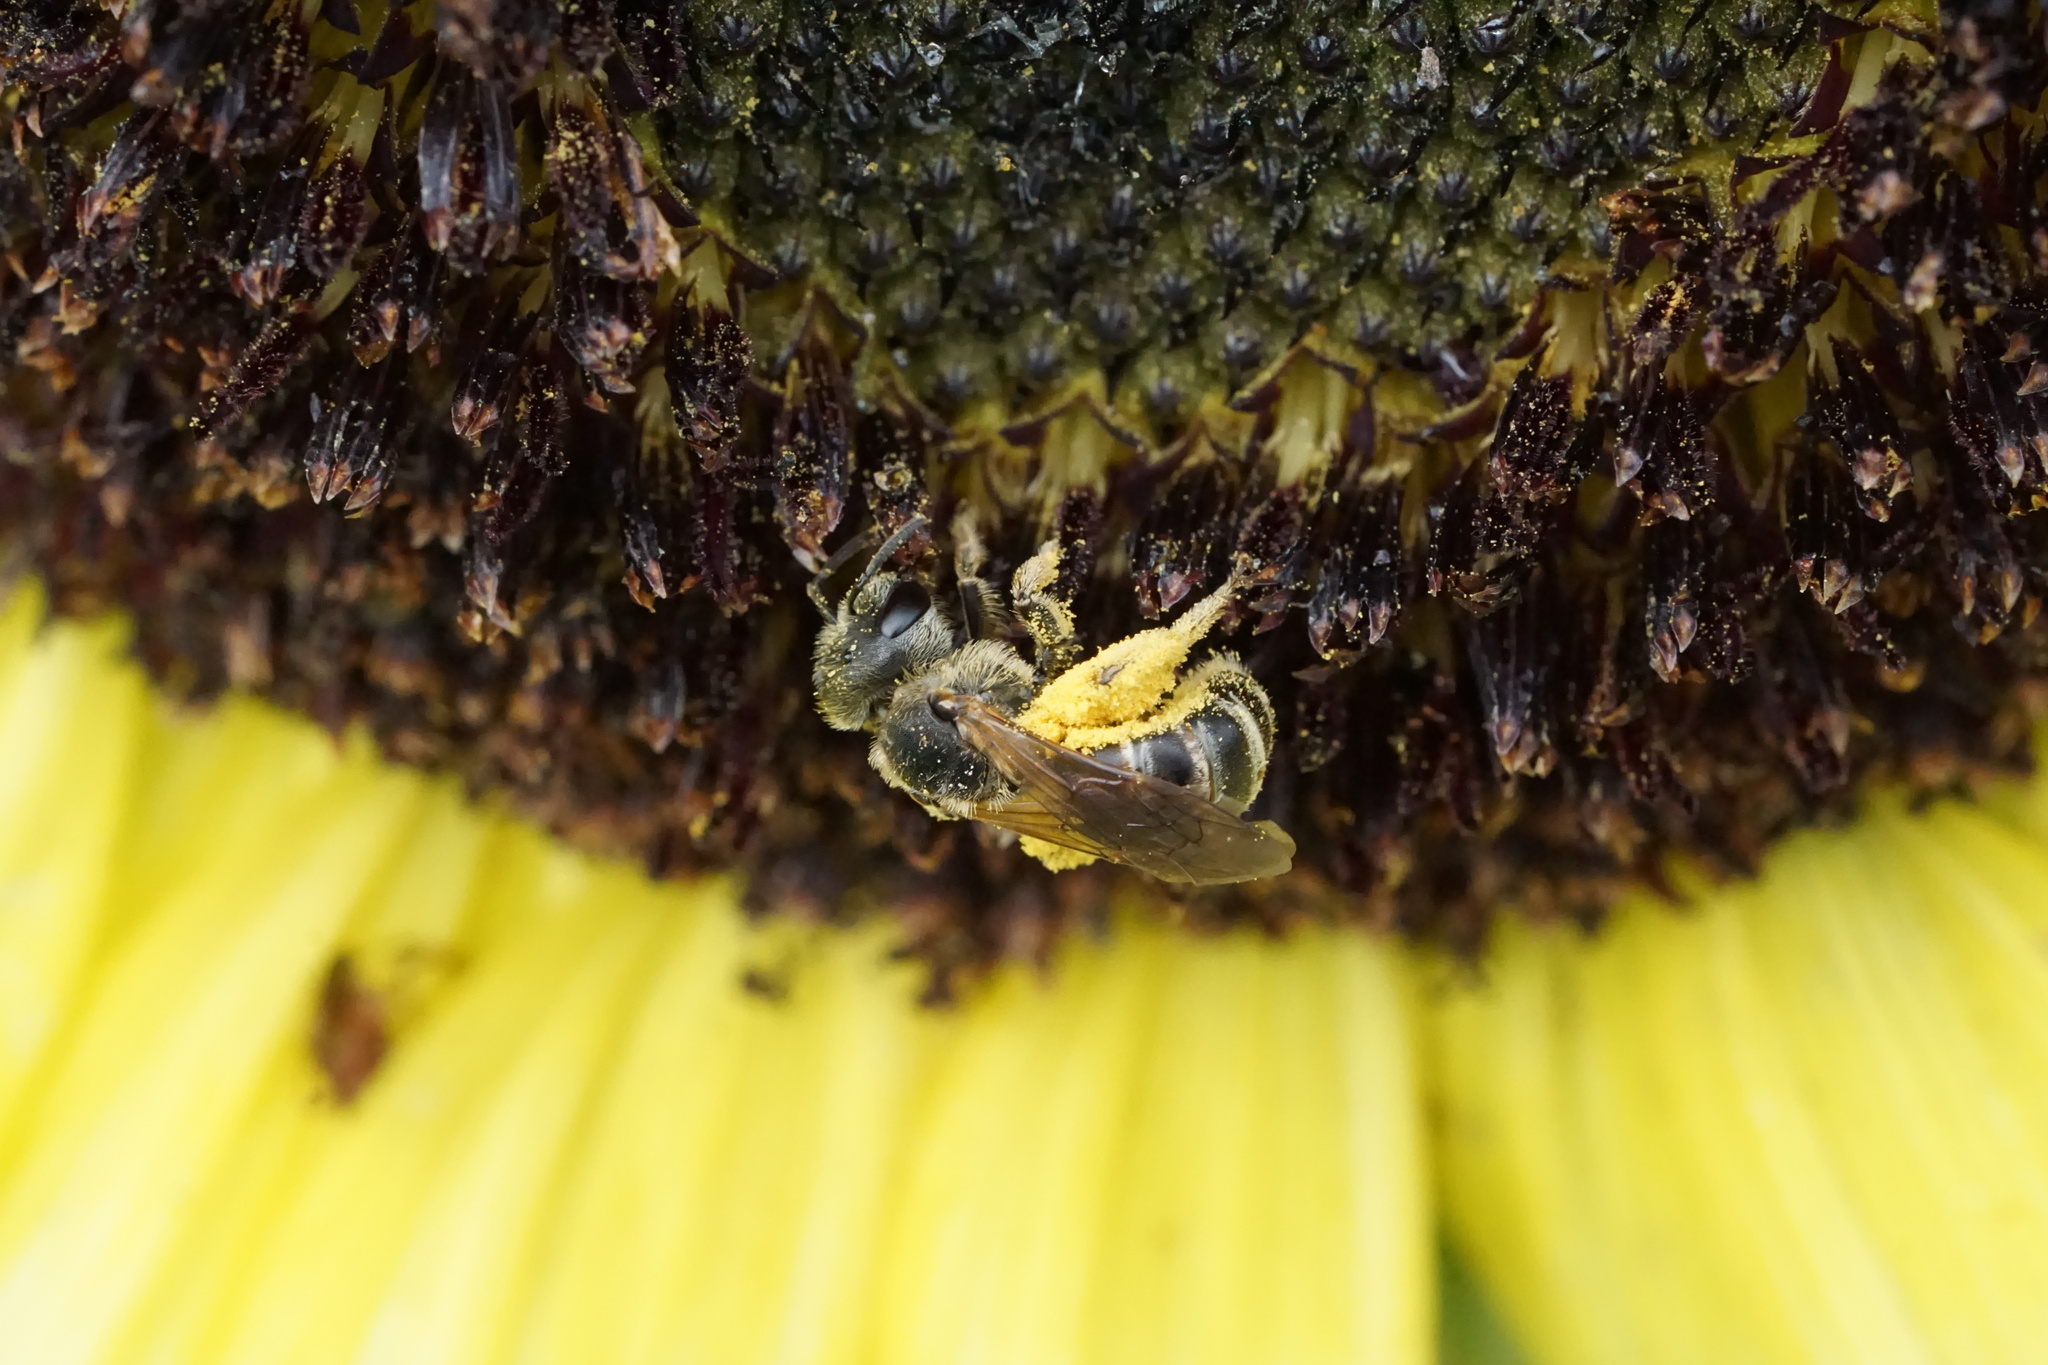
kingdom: Animalia
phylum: Arthropoda
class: Insecta
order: Hymenoptera
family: Halictidae
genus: Halictus
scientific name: Halictus ligatus
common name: Ligated furrow bee
